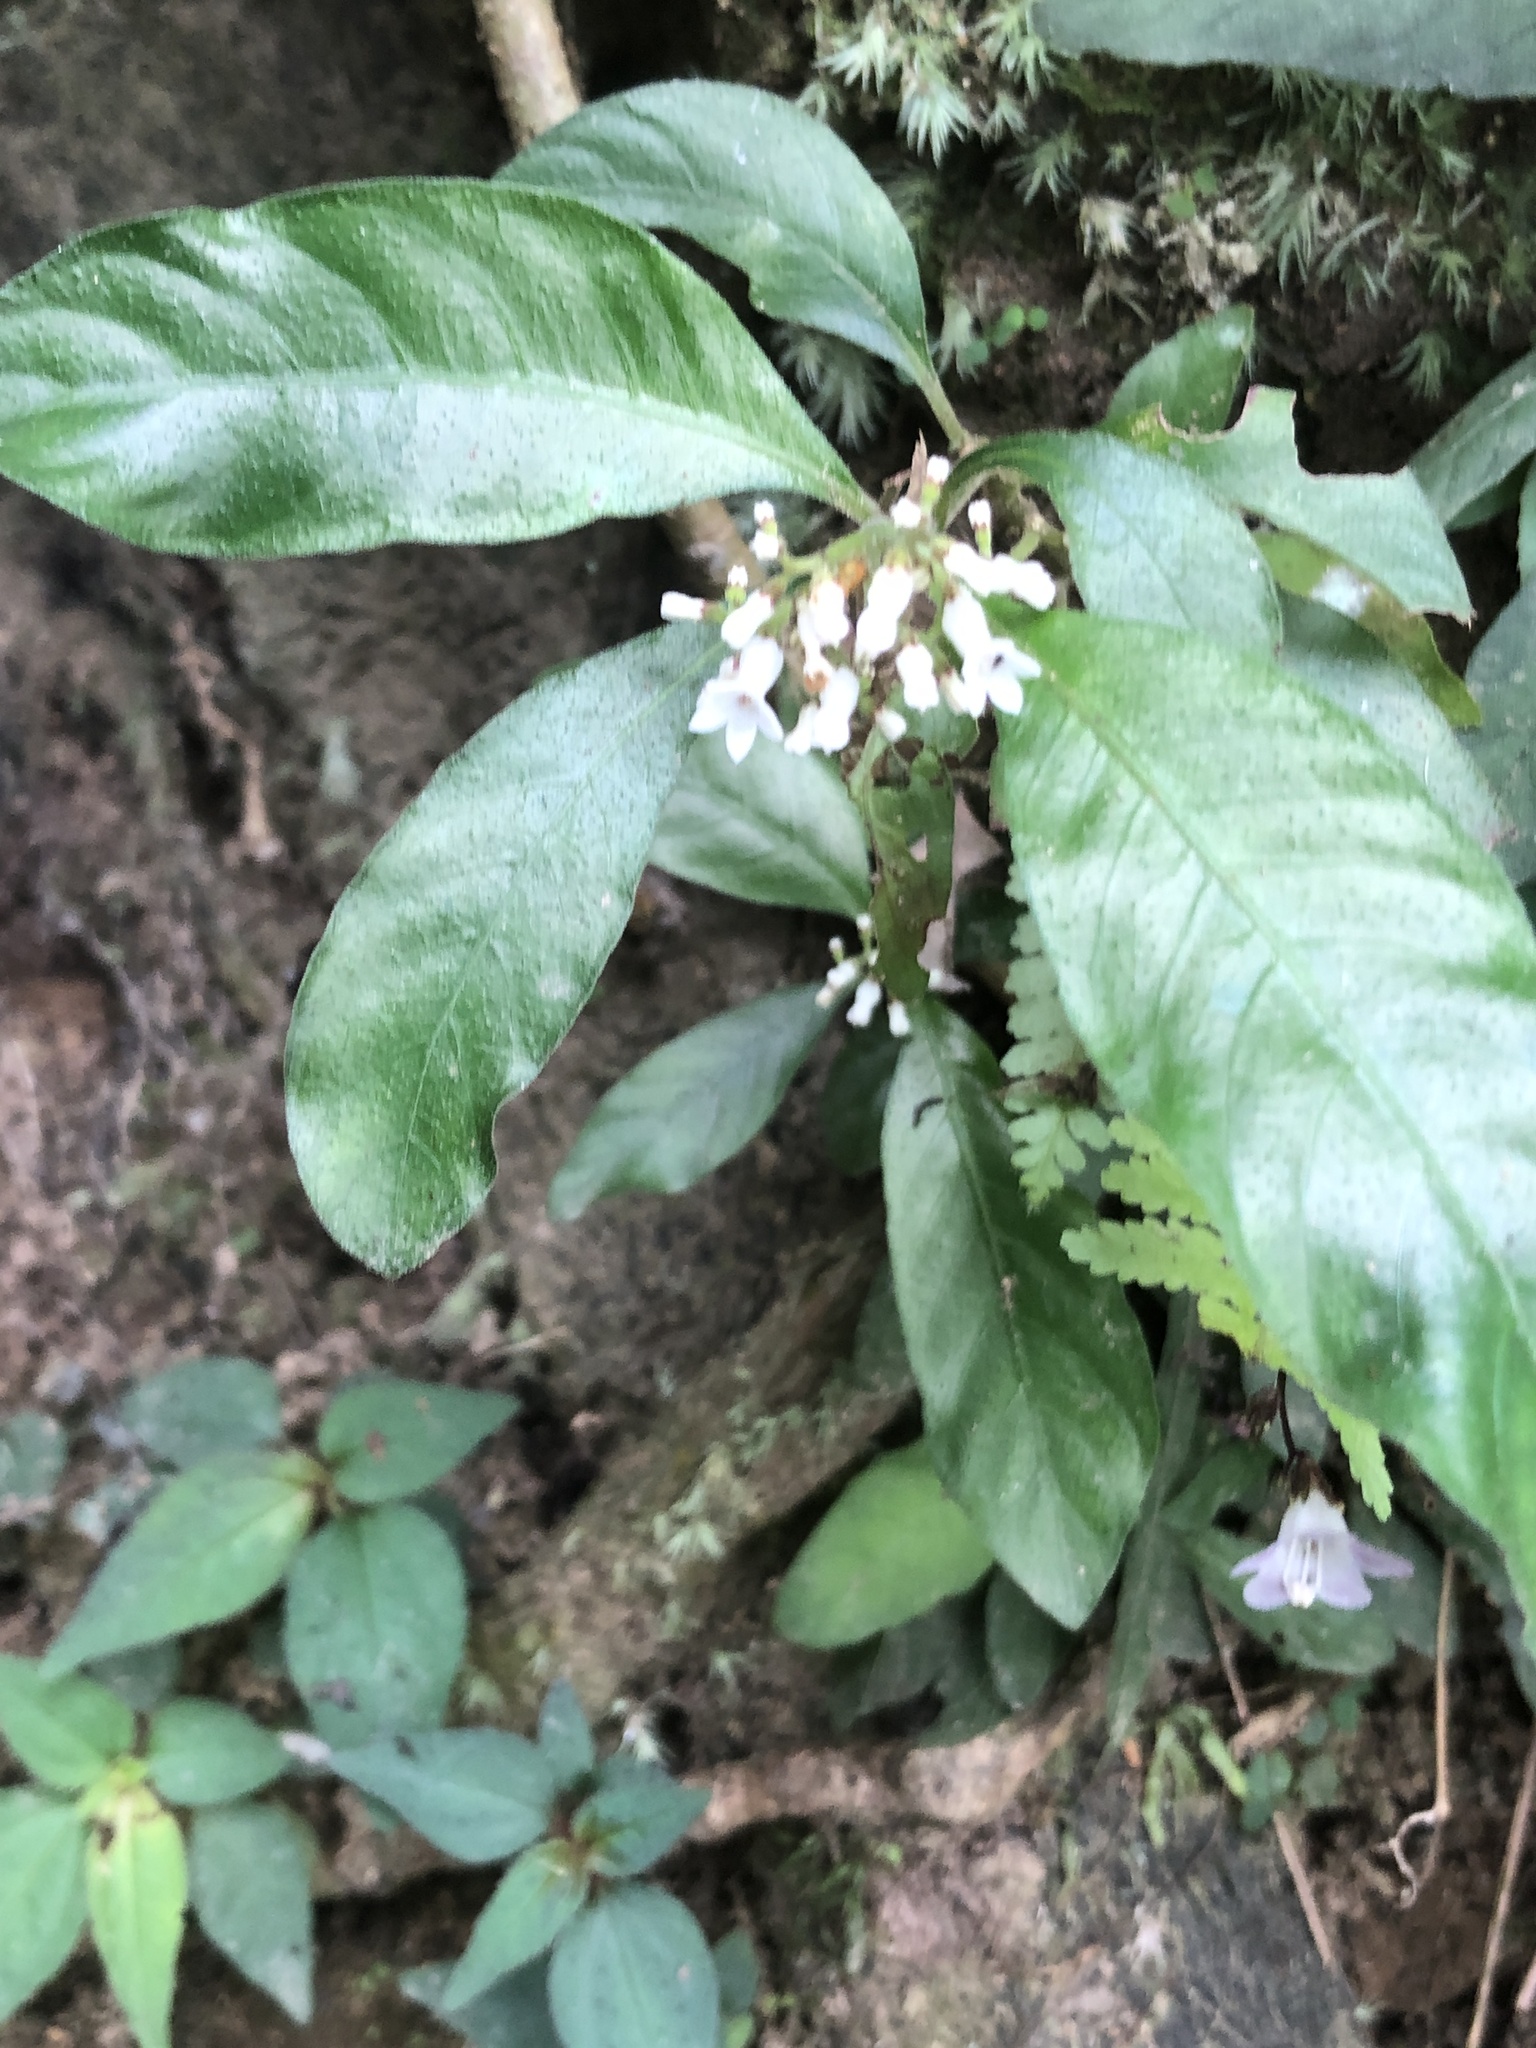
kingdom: Plantae
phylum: Tracheophyta
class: Magnoliopsida
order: Gentianales
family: Rubiaceae
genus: Ophiorrhiza
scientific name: Ophiorrhiza pumila
